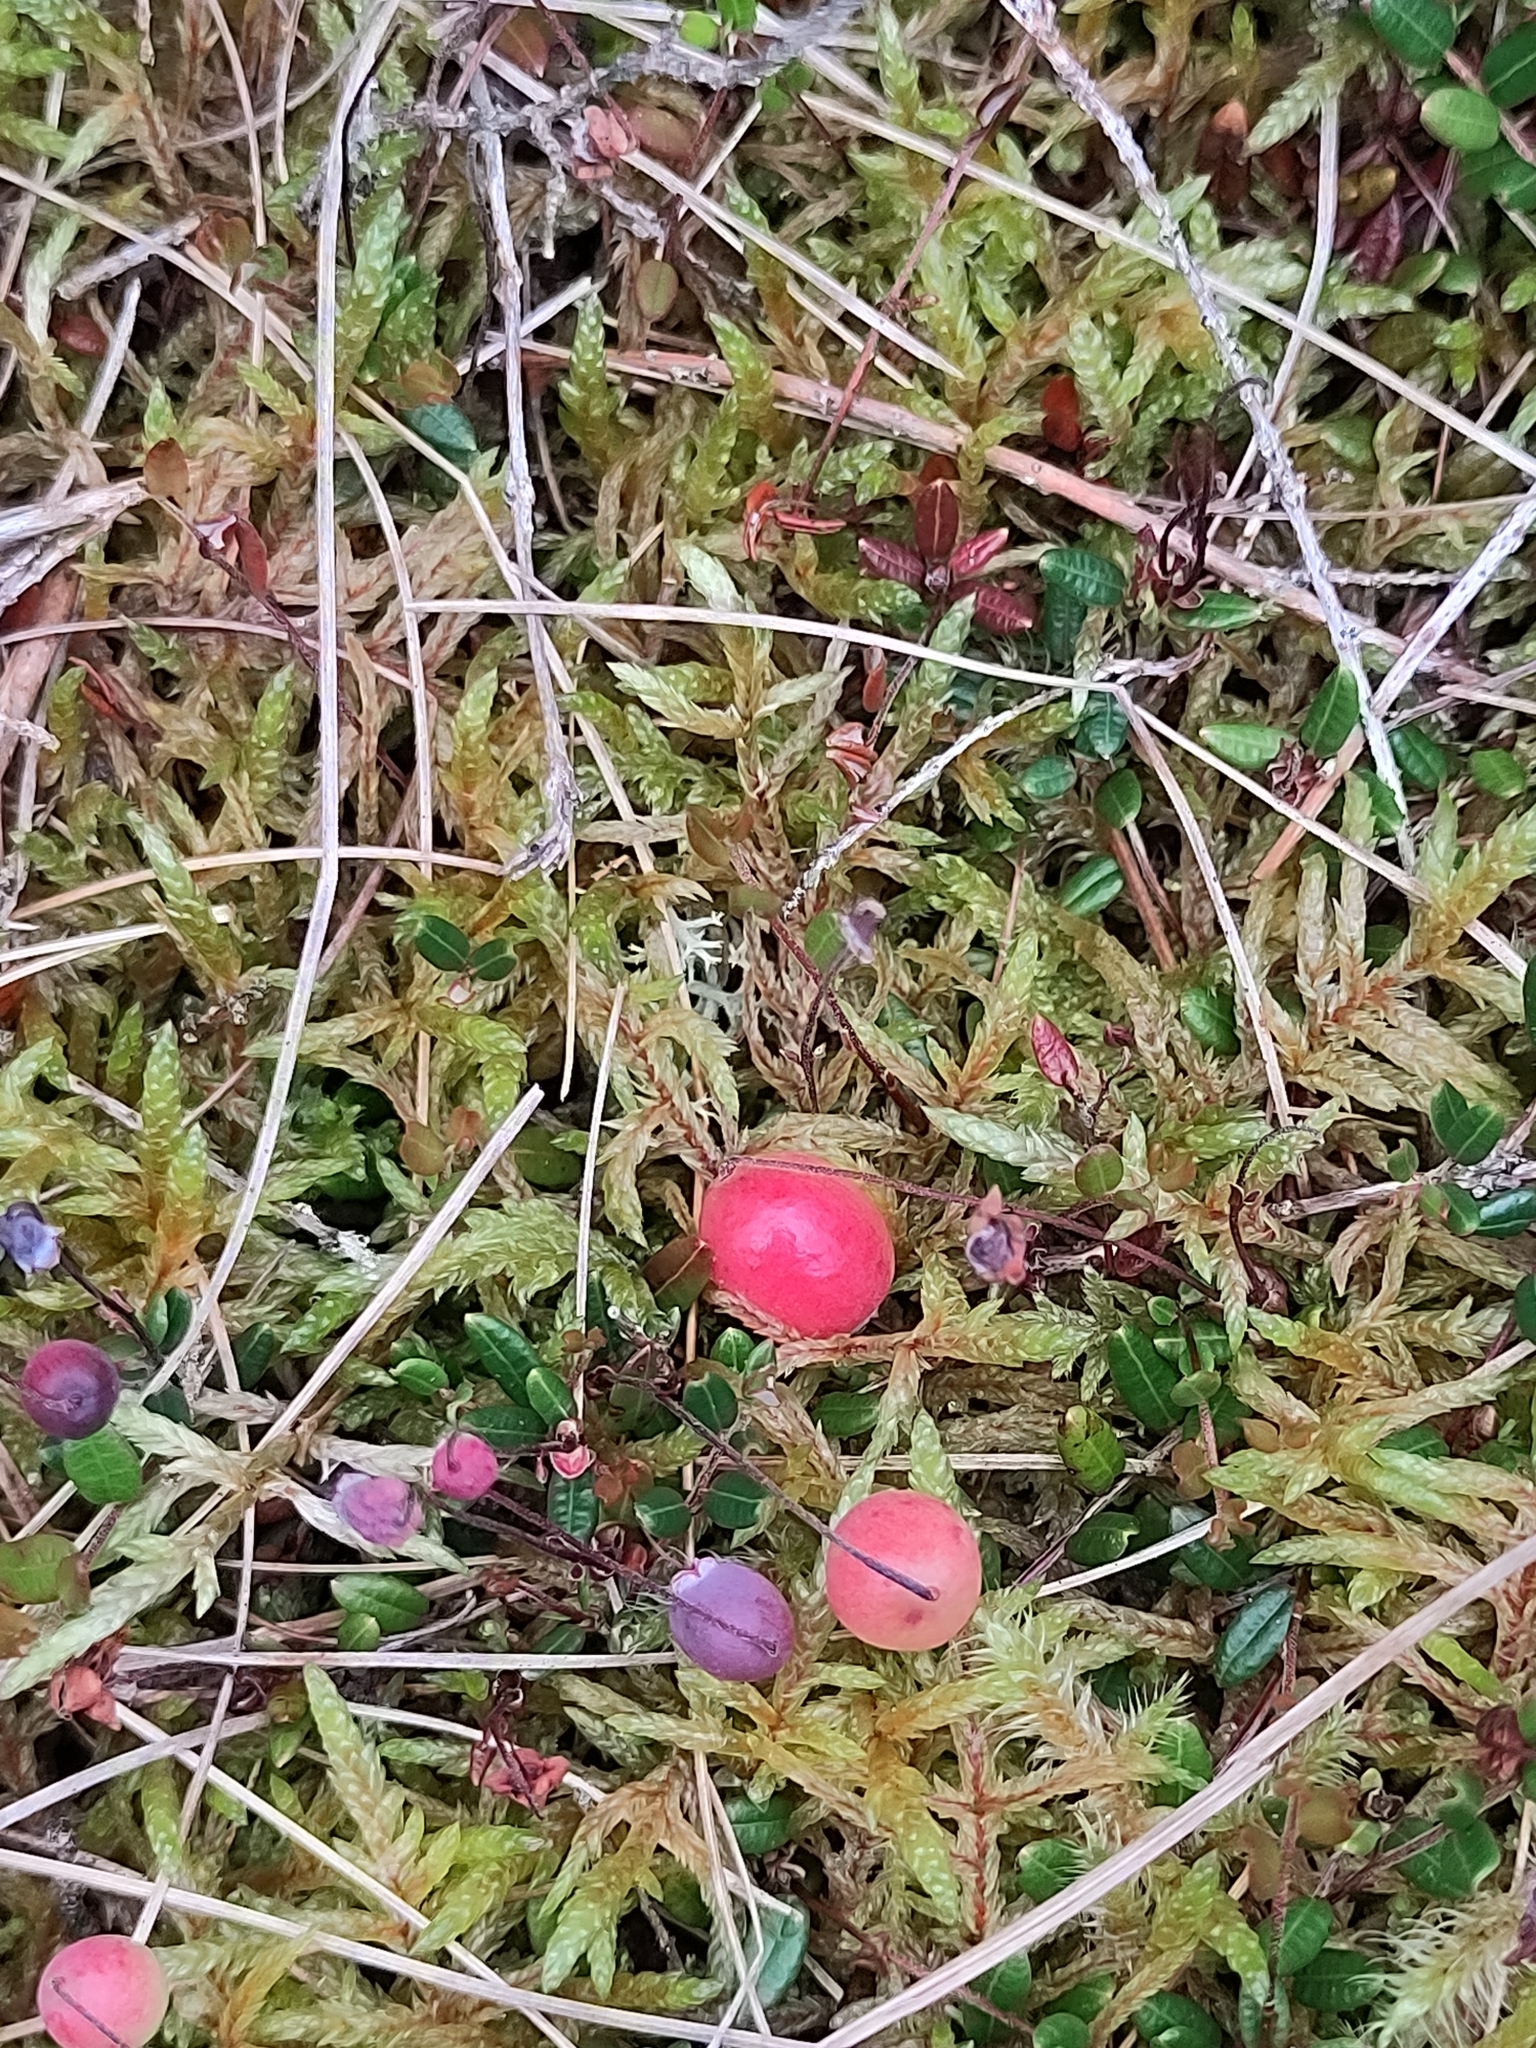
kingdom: Plantae
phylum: Tracheophyta
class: Magnoliopsida
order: Ericales
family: Ericaceae
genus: Vaccinium
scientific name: Vaccinium oxycoccos
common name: Cranberry
